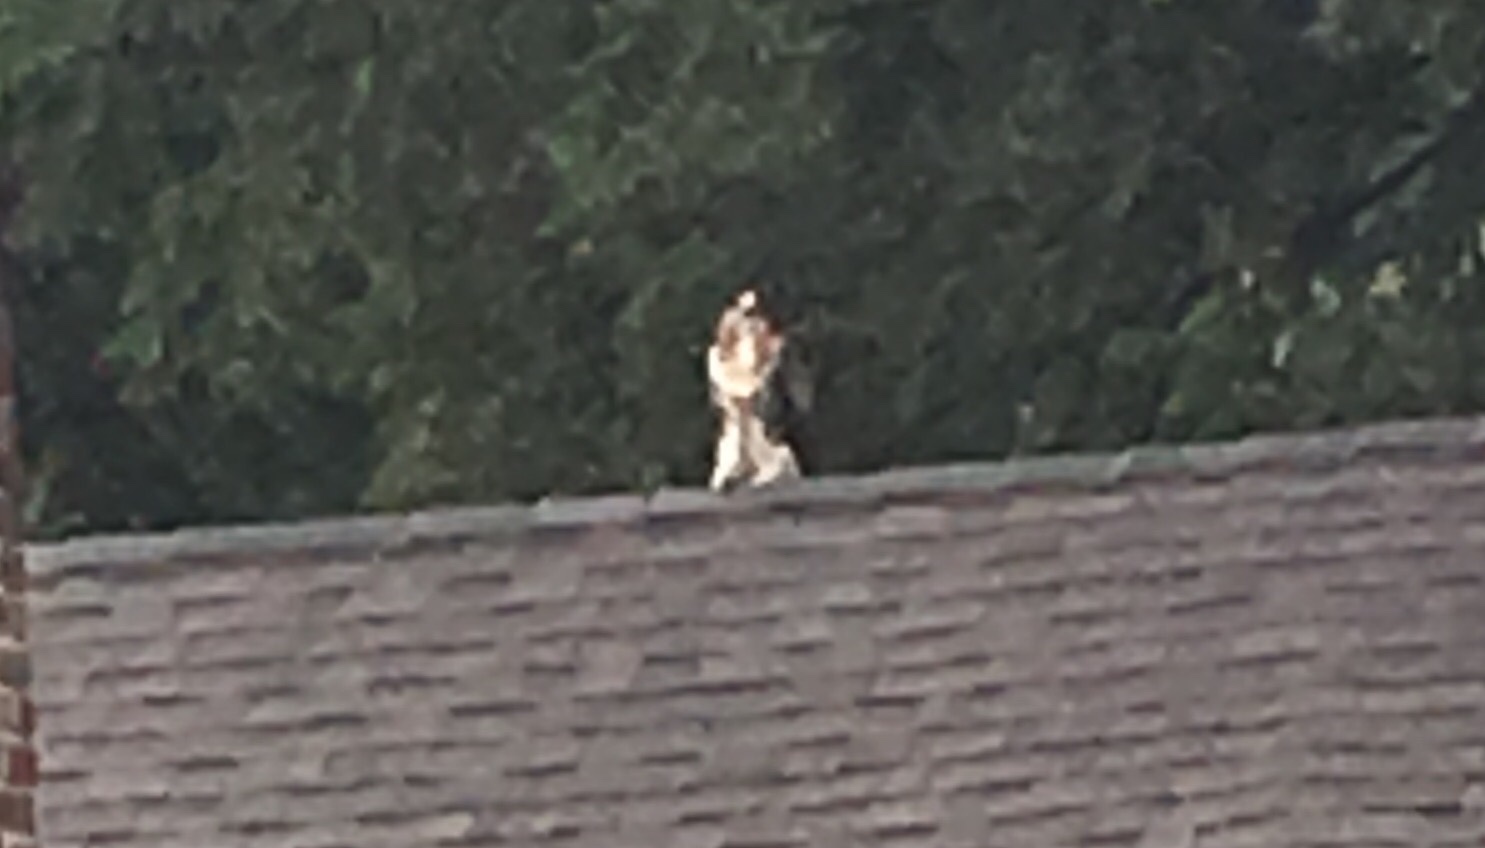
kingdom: Animalia
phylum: Chordata
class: Aves
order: Accipitriformes
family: Accipitridae
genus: Buteo
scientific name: Buteo jamaicensis
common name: Red-tailed hawk
